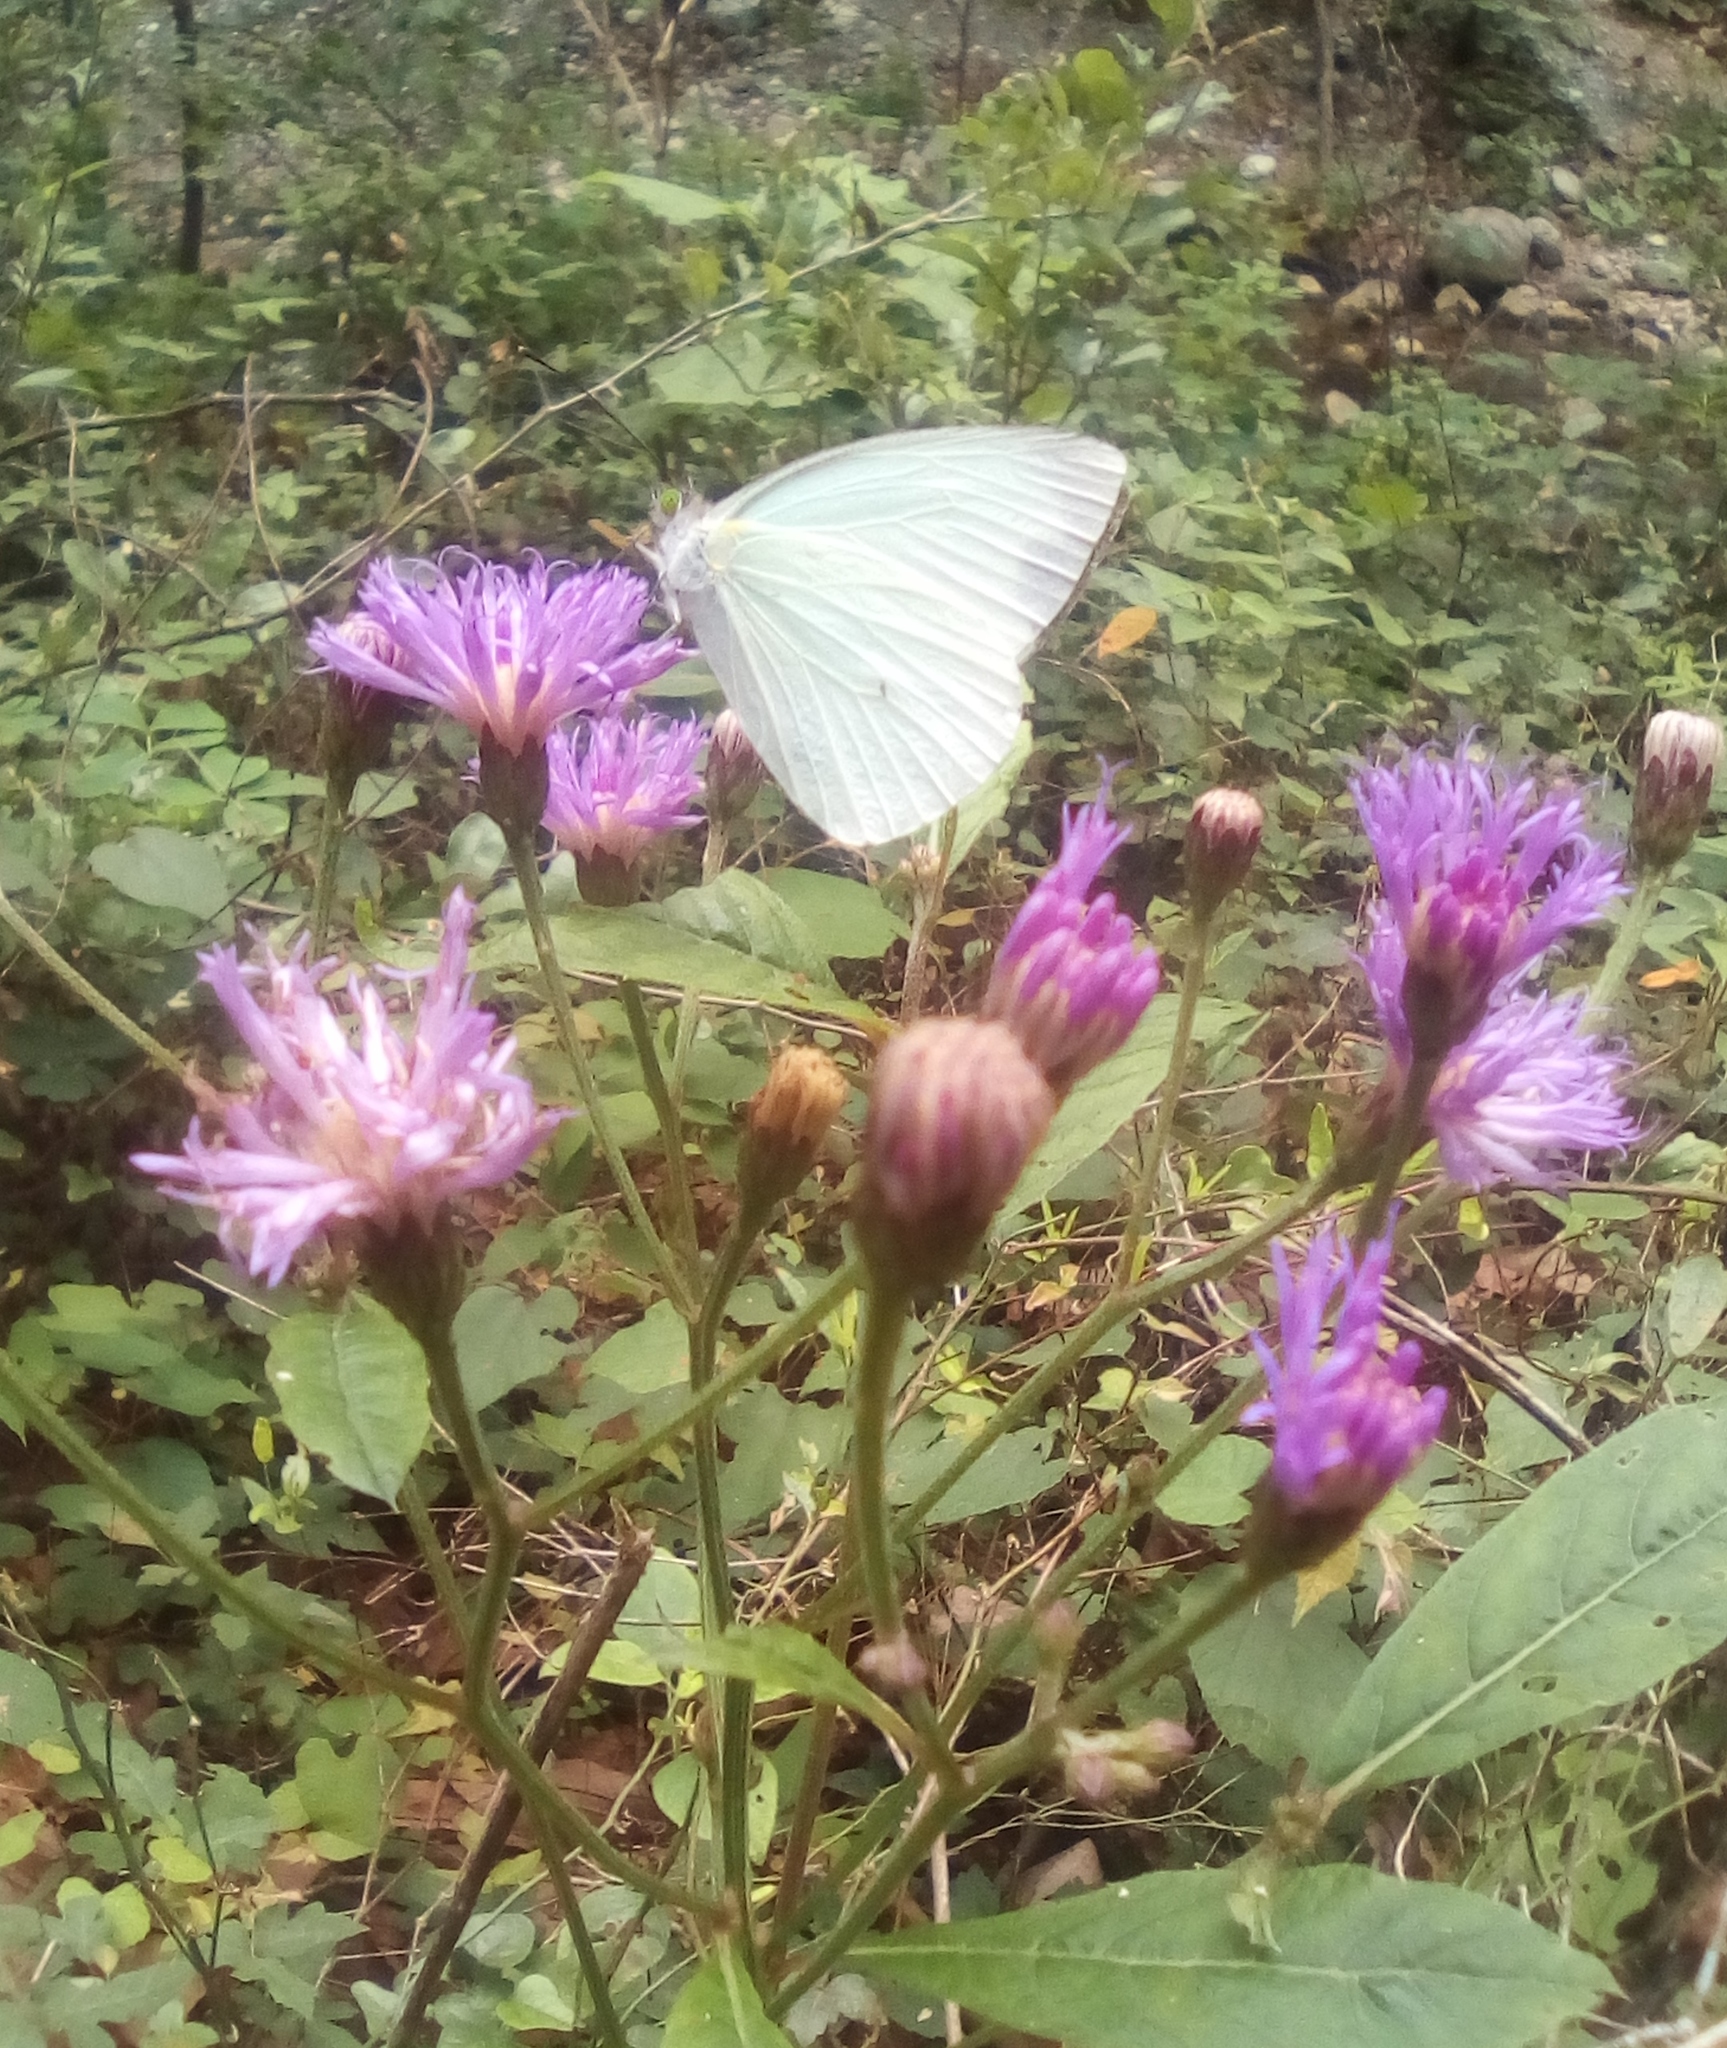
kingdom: Plantae
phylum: Tracheophyta
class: Magnoliopsida
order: Asterales
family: Asteraceae
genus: Vernonia
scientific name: Vernonia greggii
